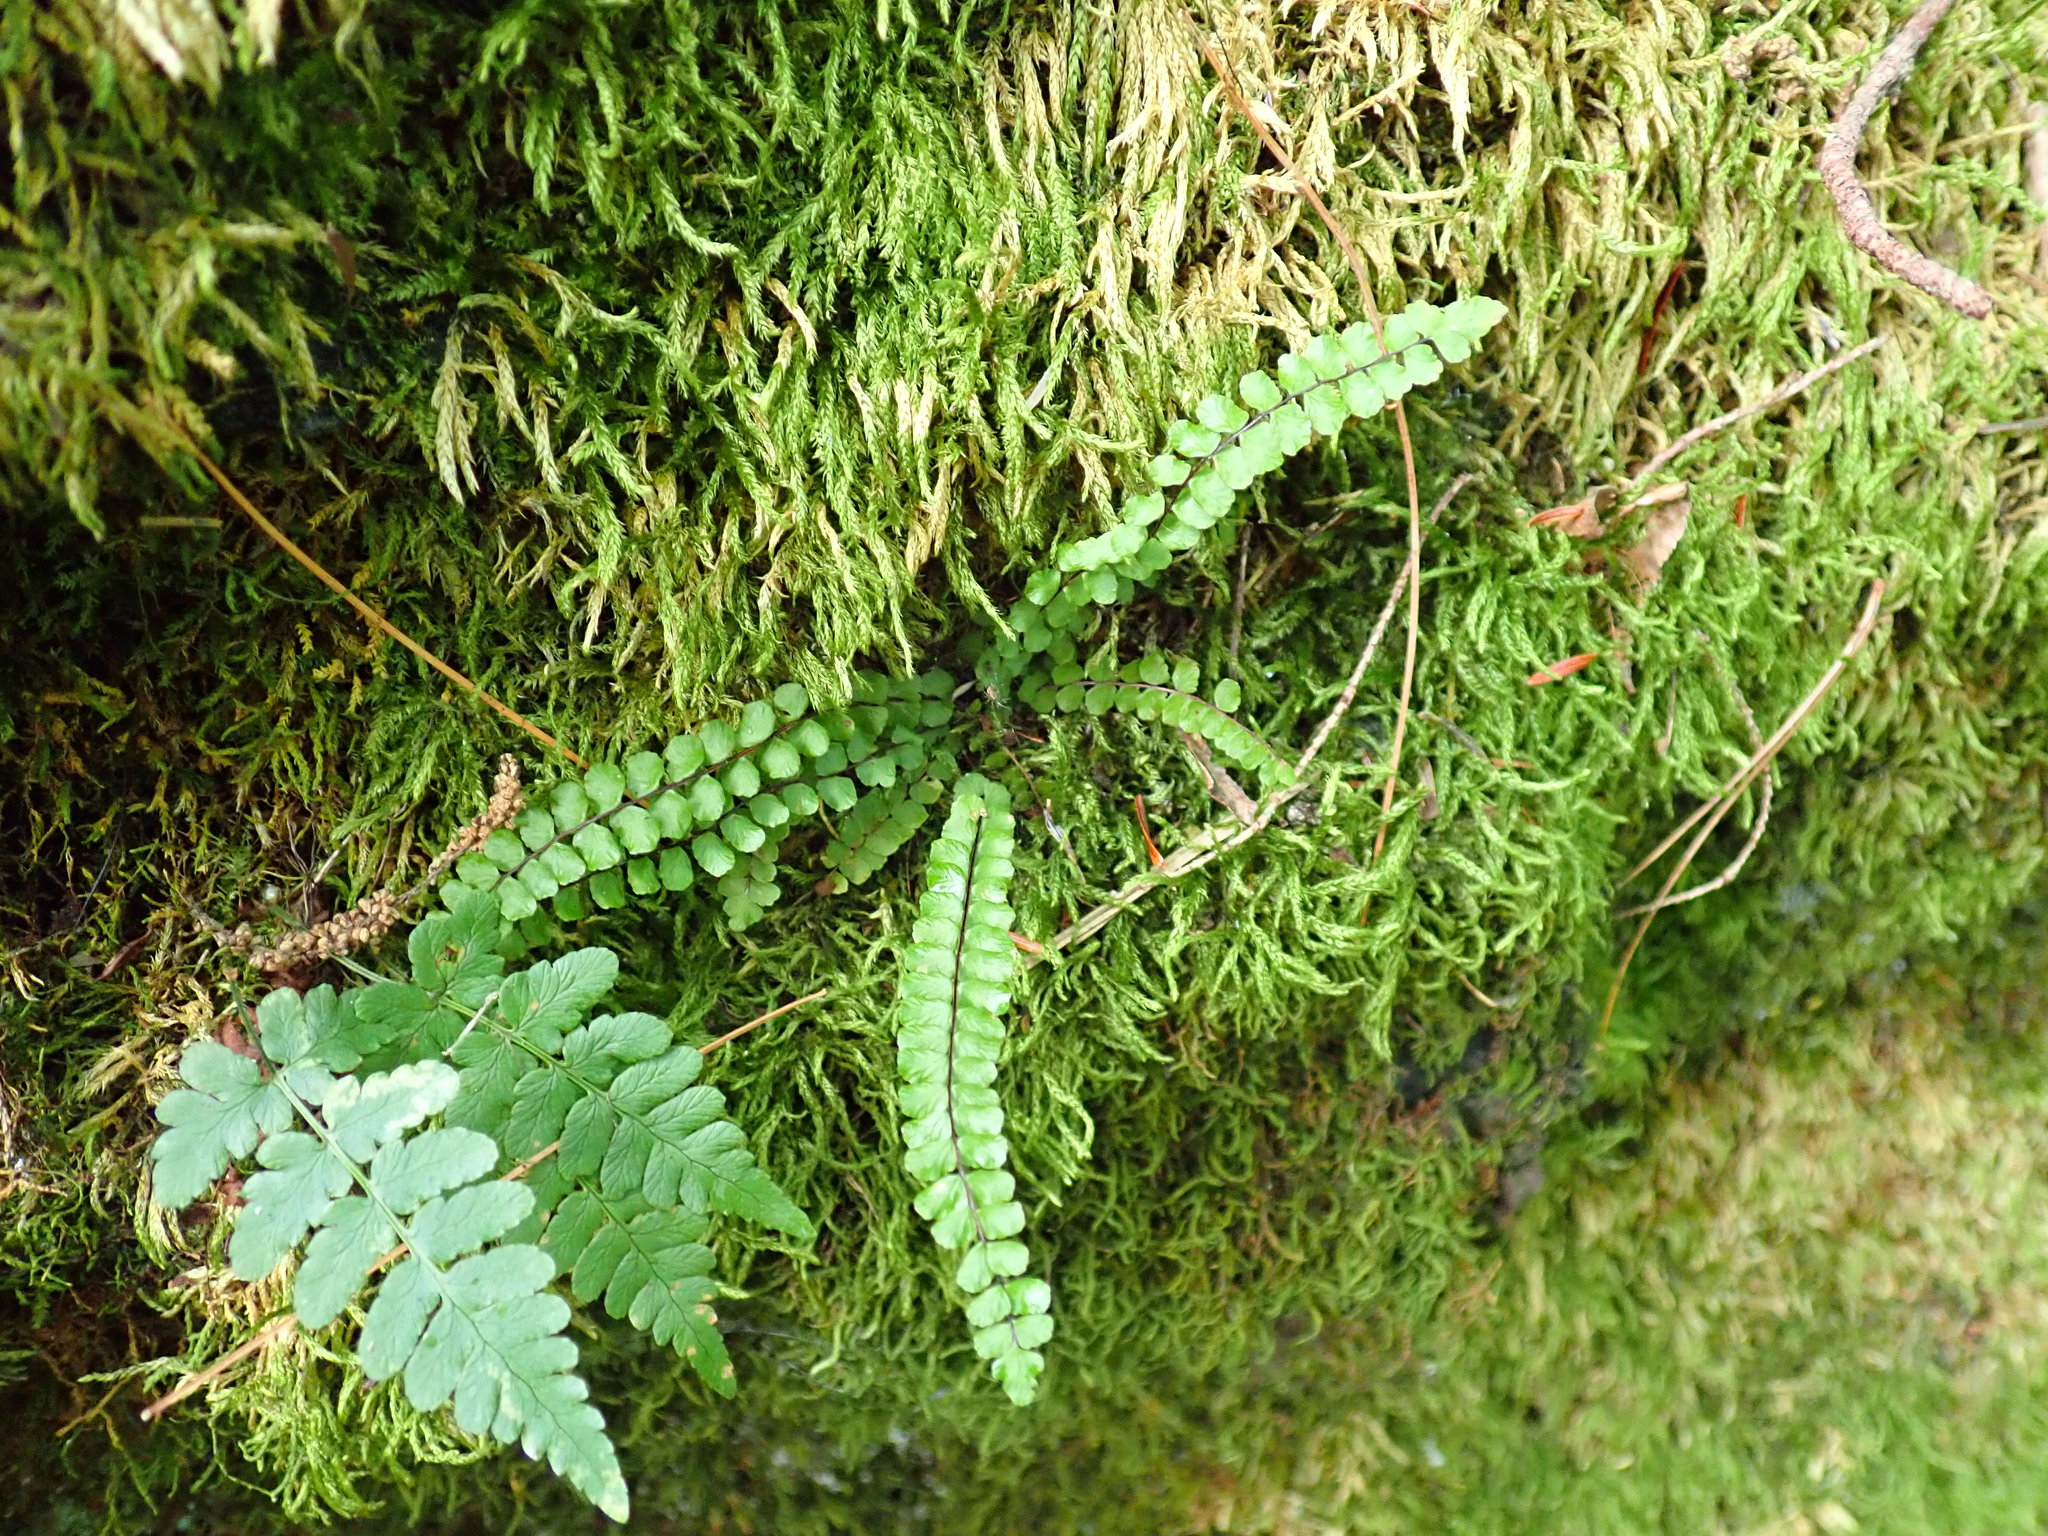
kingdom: Plantae
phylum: Tracheophyta
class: Polypodiopsida
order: Polypodiales
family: Aspleniaceae
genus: Asplenium
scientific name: Asplenium trichomanes
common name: Maidenhair spleenwort
